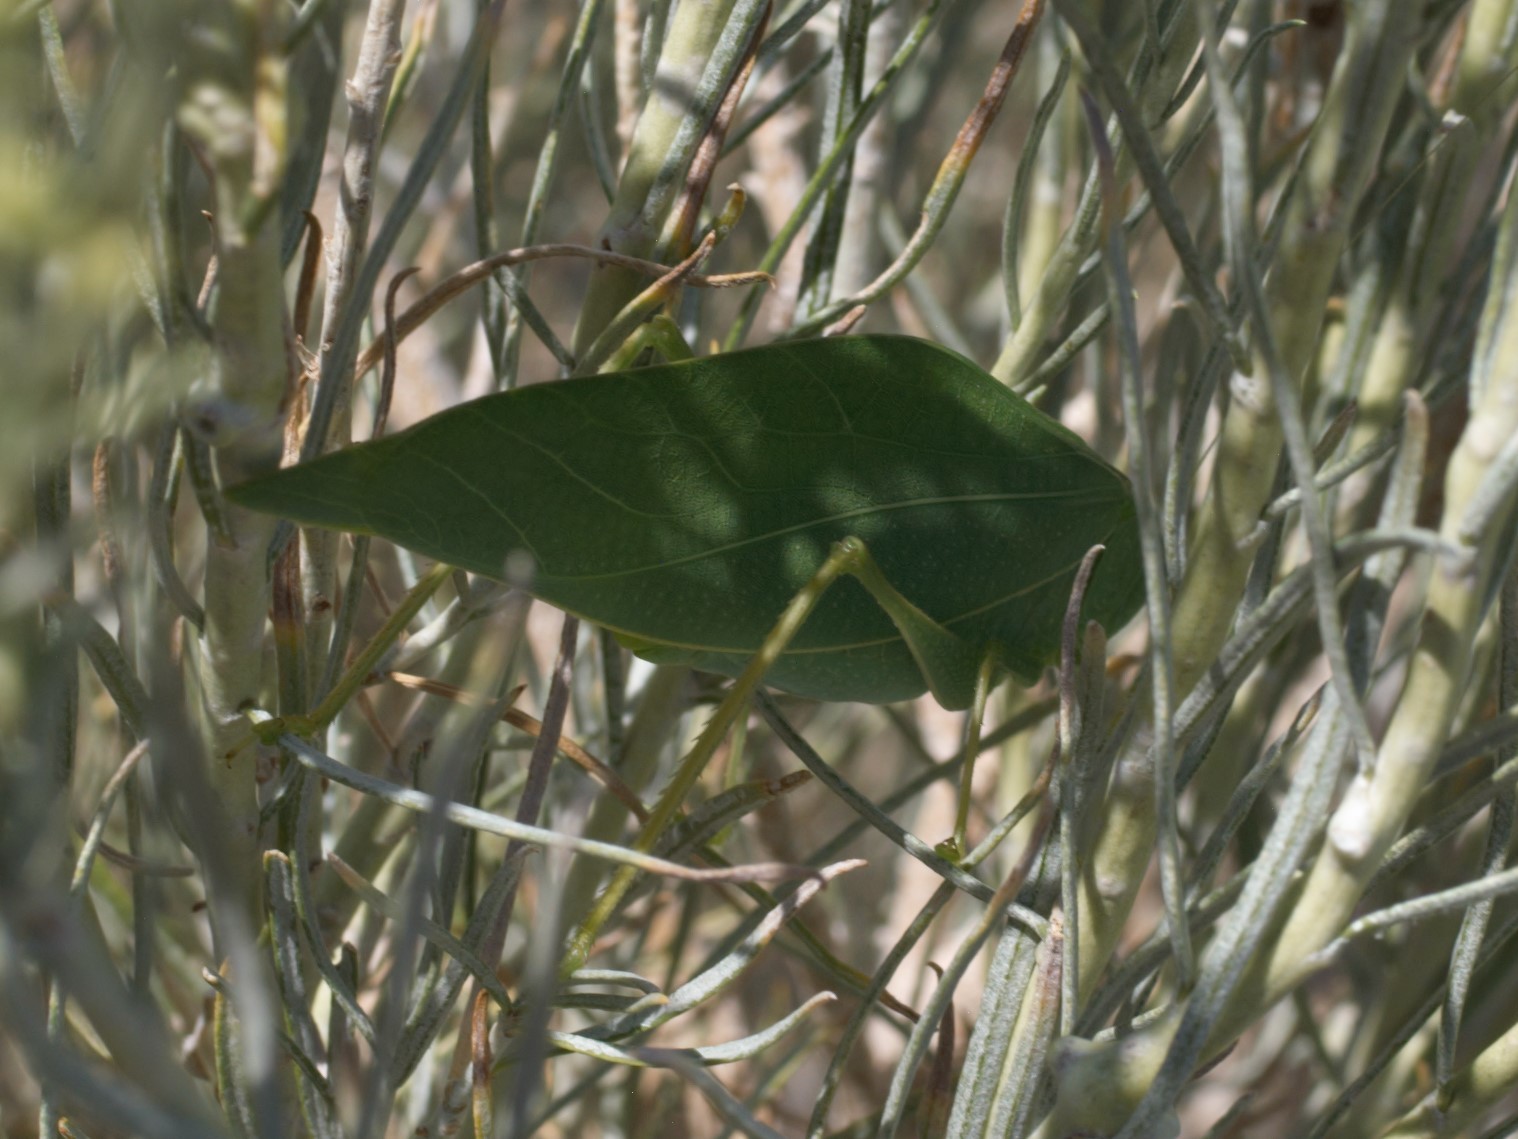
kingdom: Animalia
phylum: Arthropoda
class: Insecta
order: Orthoptera
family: Tettigoniidae
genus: Microcentrum
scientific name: Microcentrum rhombifolium
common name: Broad-winged katydid
